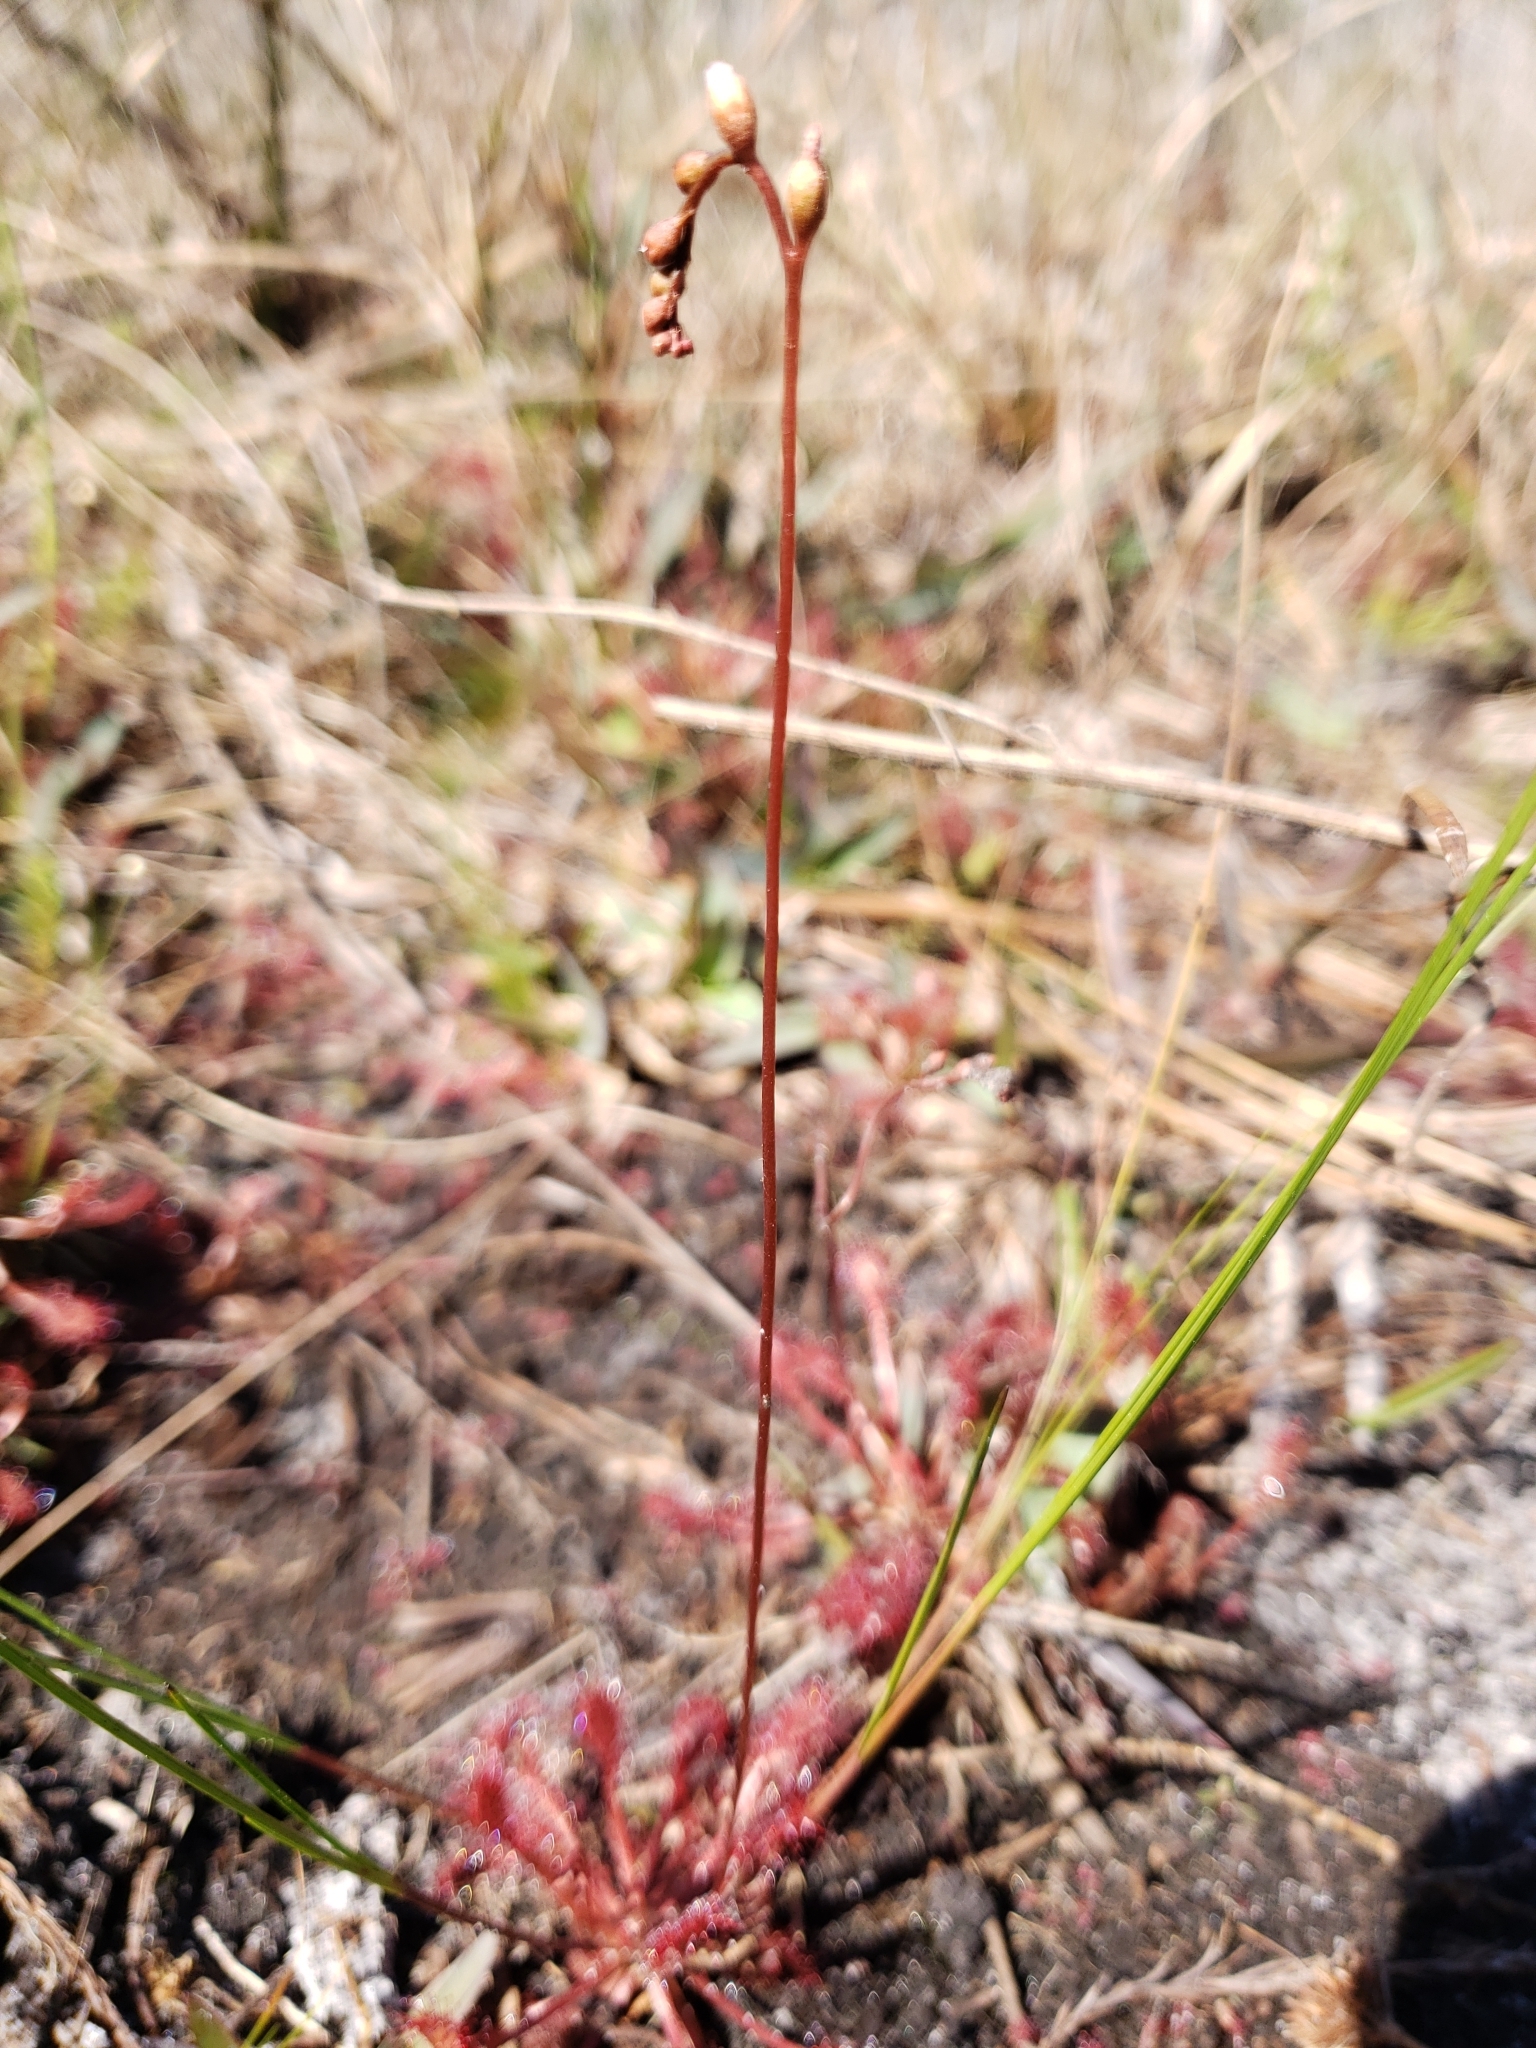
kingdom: Plantae
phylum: Tracheophyta
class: Magnoliopsida
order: Caryophyllales
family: Droseraceae
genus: Drosera
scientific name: Drosera capillaris
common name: Pink sundew
